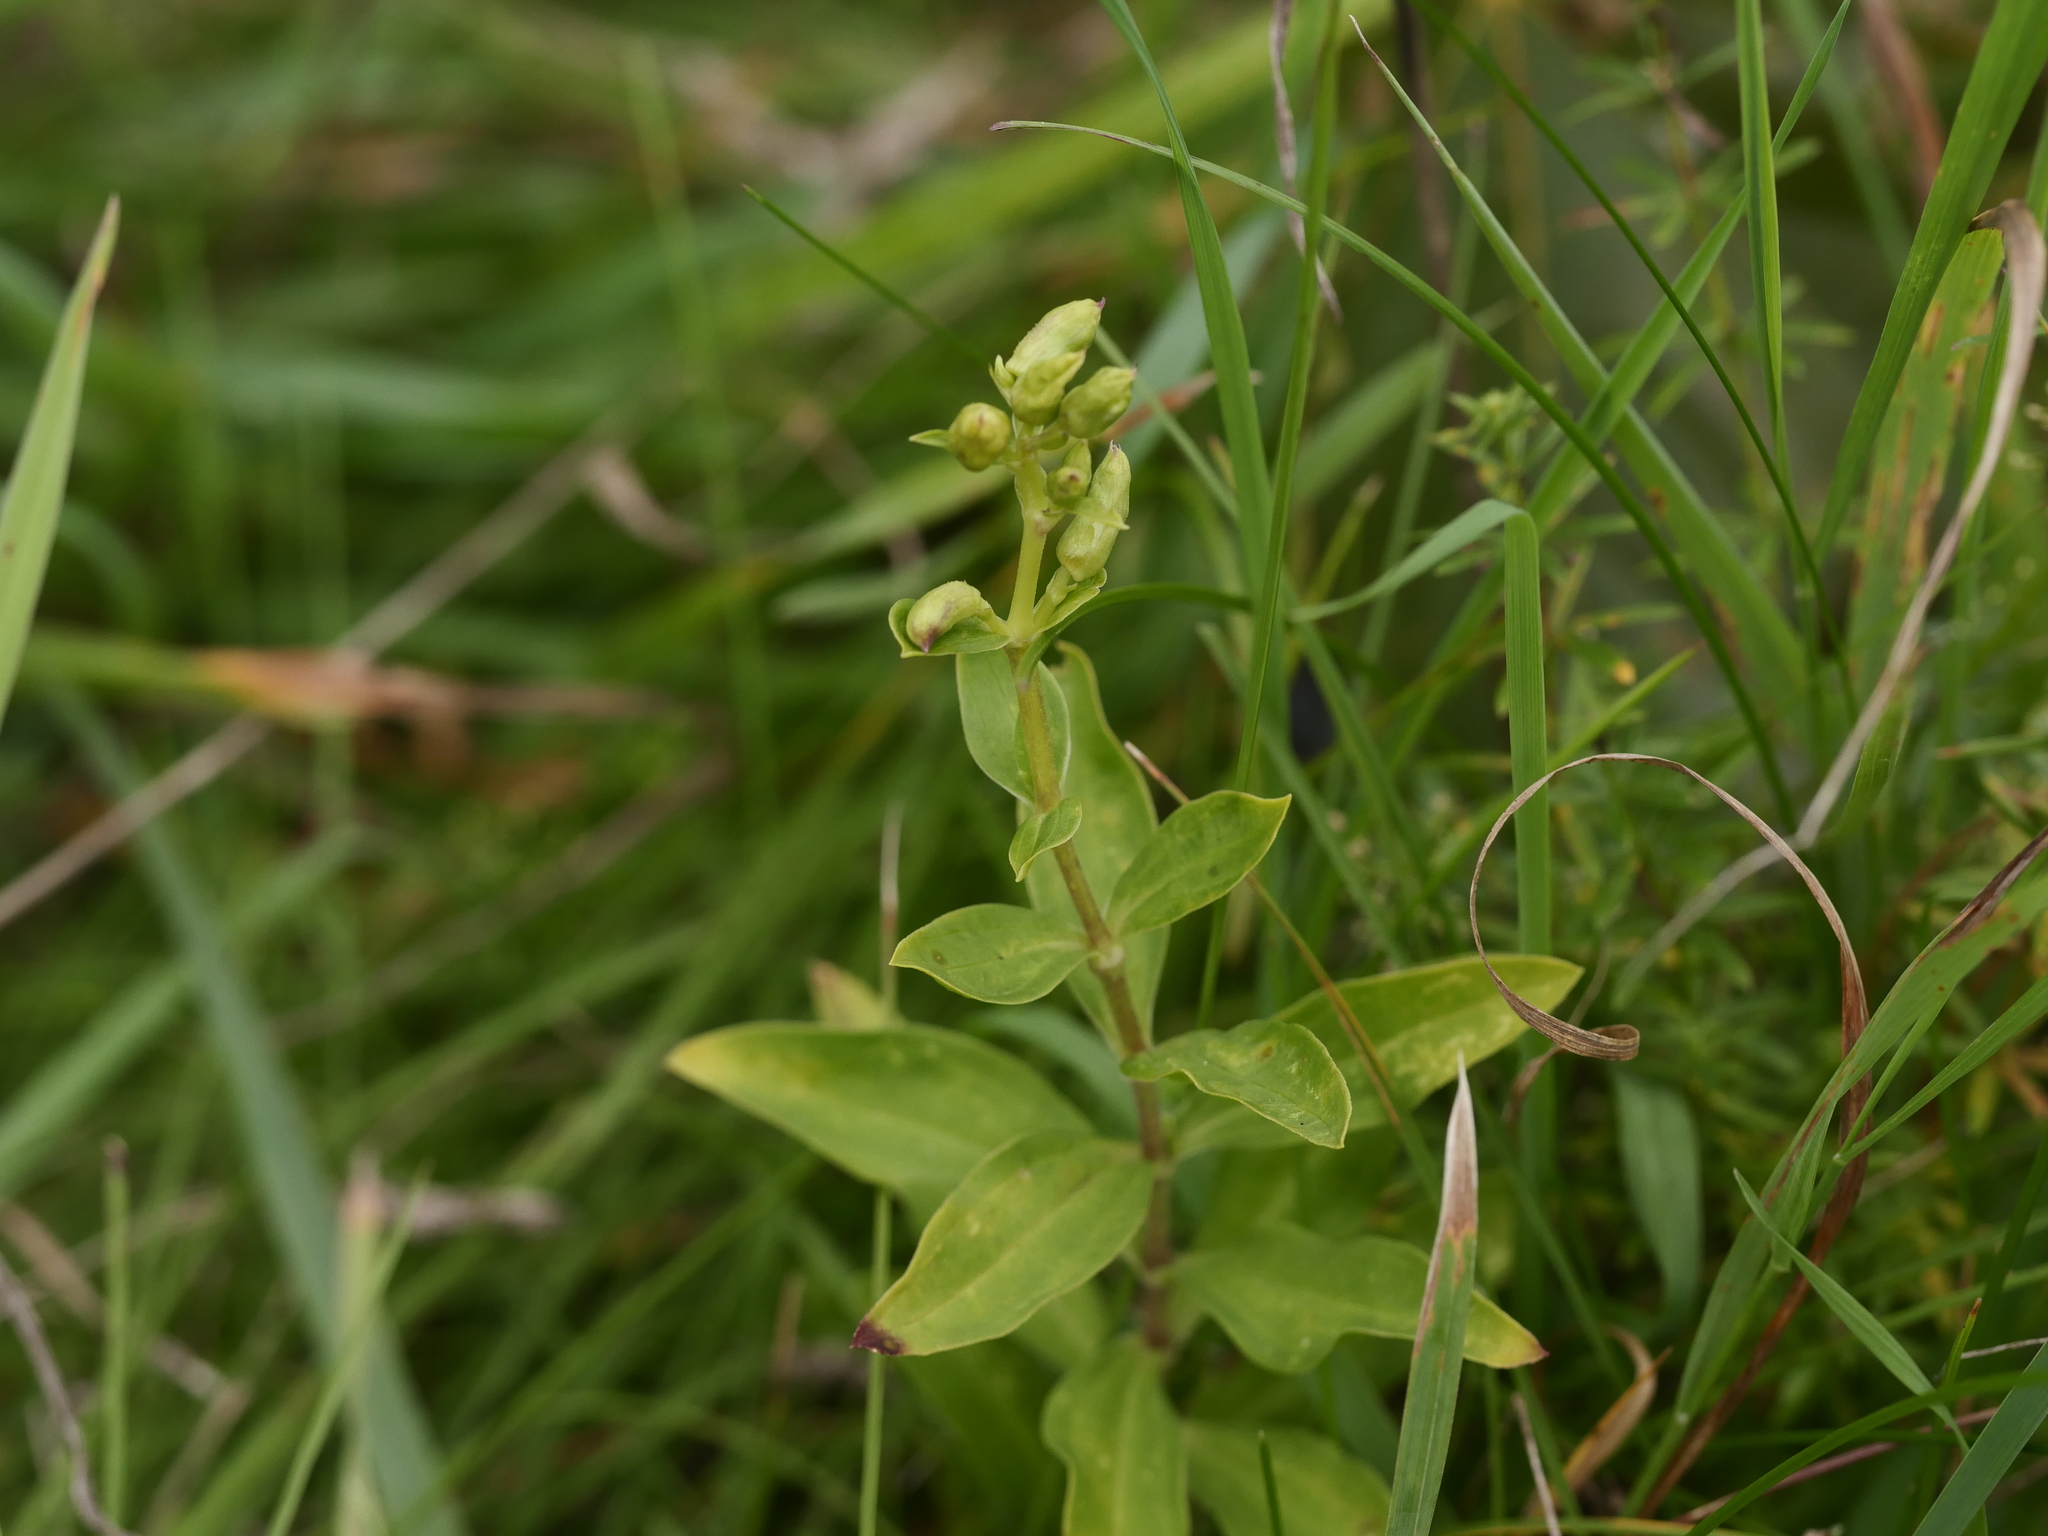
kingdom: Plantae
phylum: Tracheophyta
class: Magnoliopsida
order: Caryophyllales
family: Caryophyllaceae
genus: Saponaria
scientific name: Saponaria officinalis
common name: Soapwort
